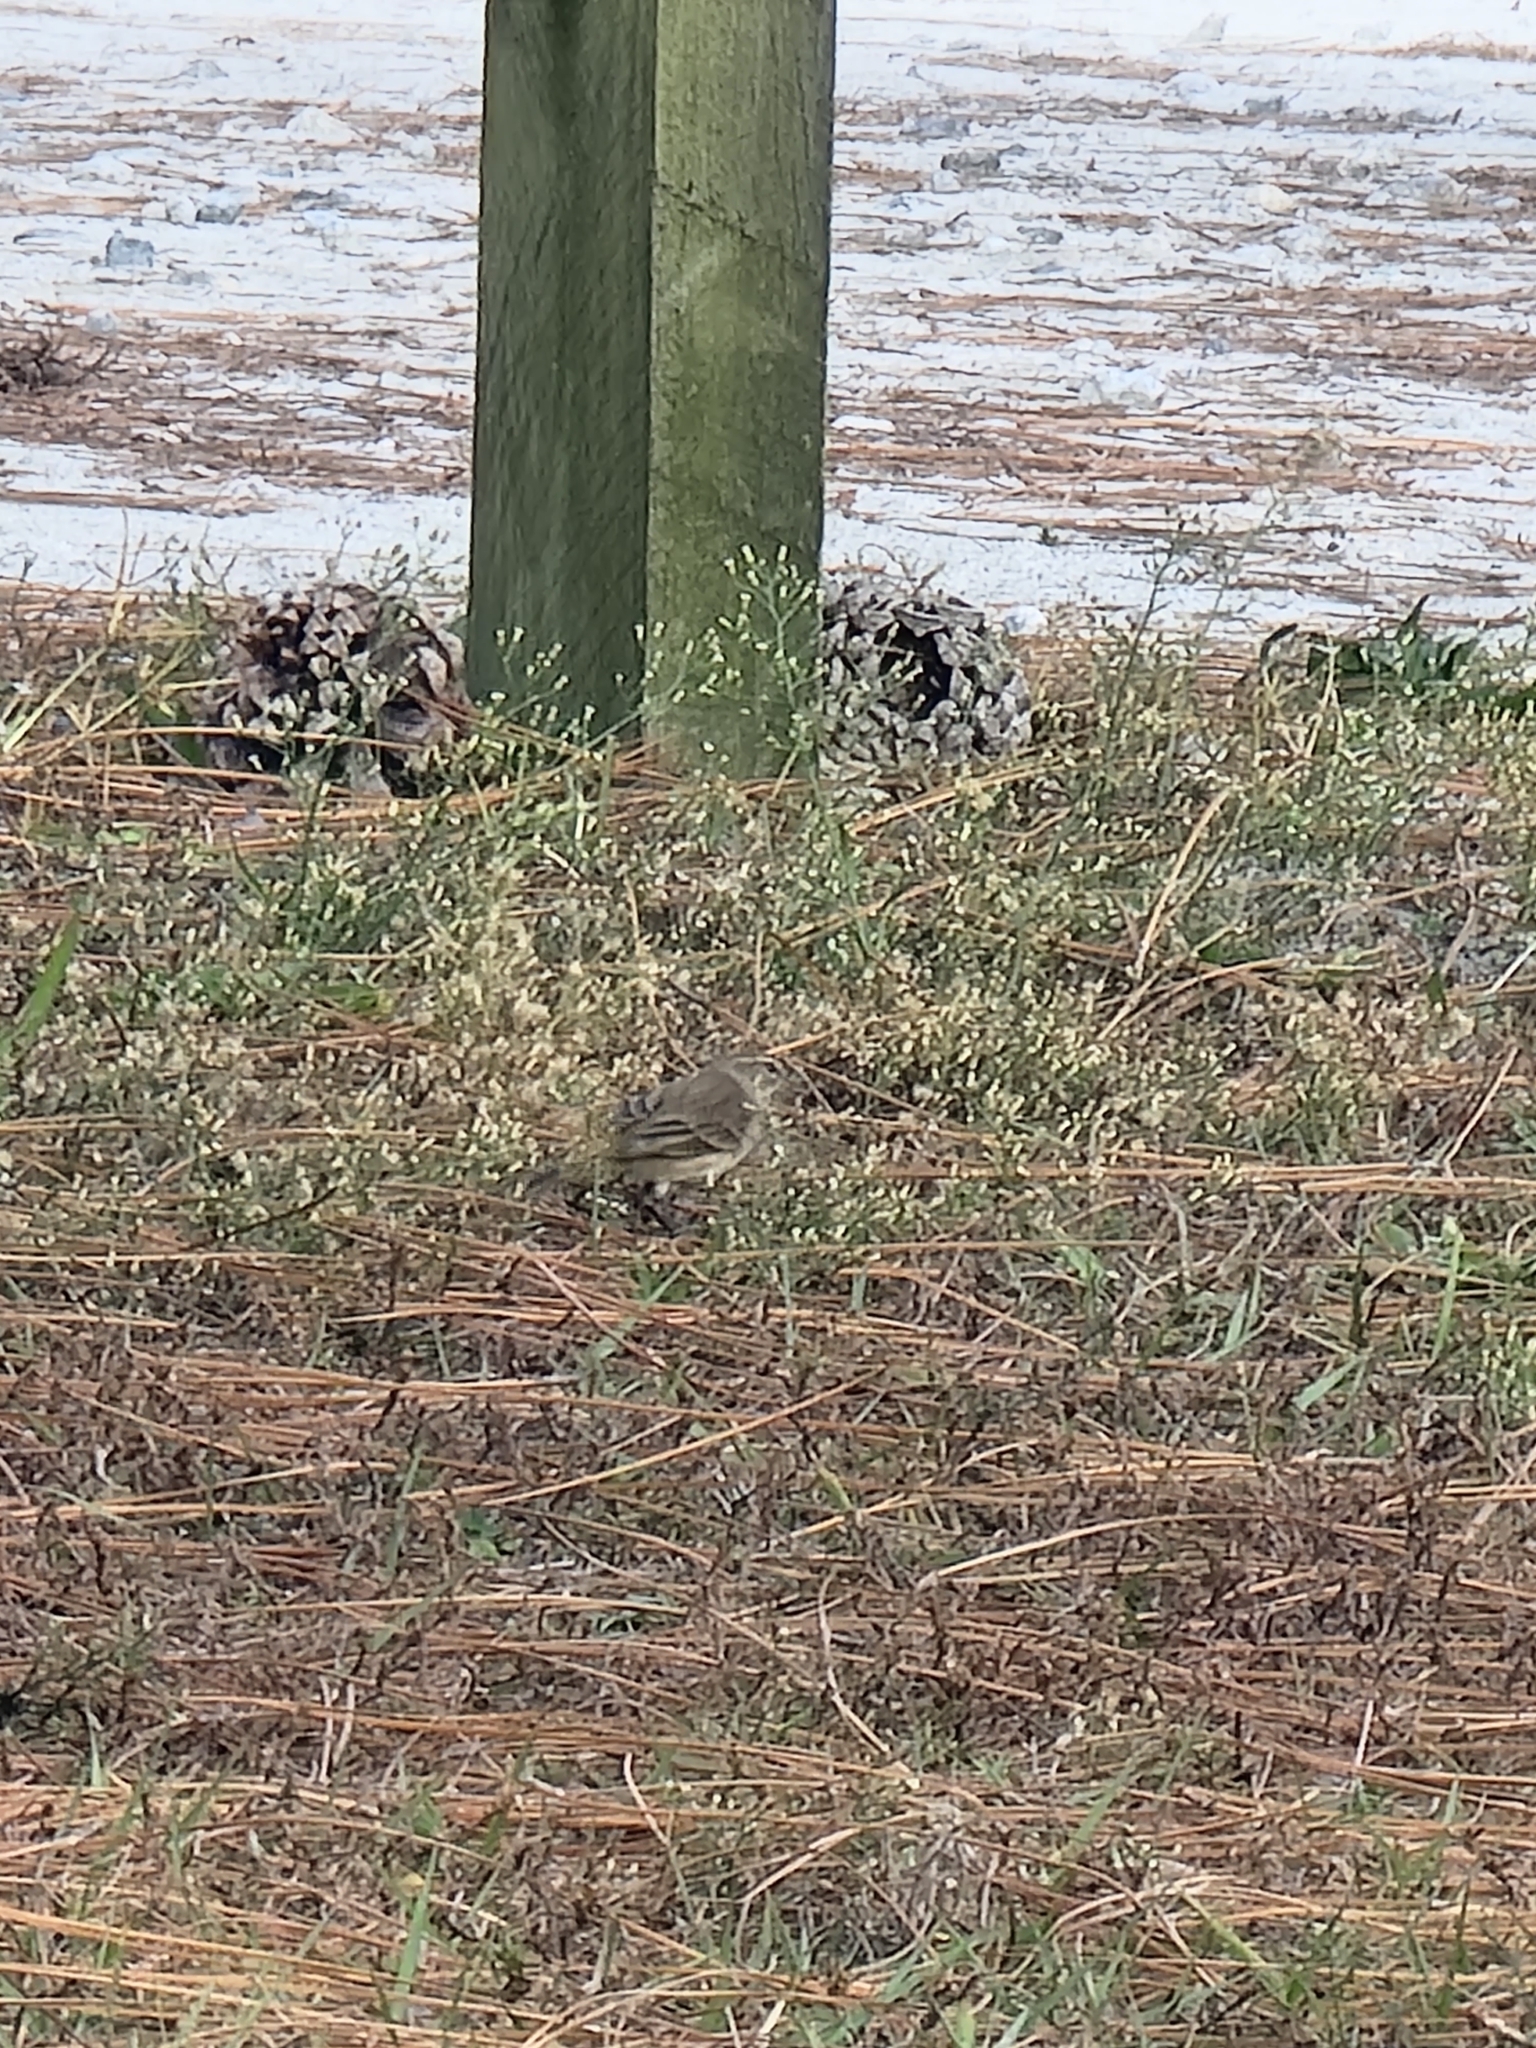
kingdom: Animalia
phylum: Chordata
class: Aves
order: Passeriformes
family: Parulidae
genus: Setophaga
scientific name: Setophaga palmarum
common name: Palm warbler
